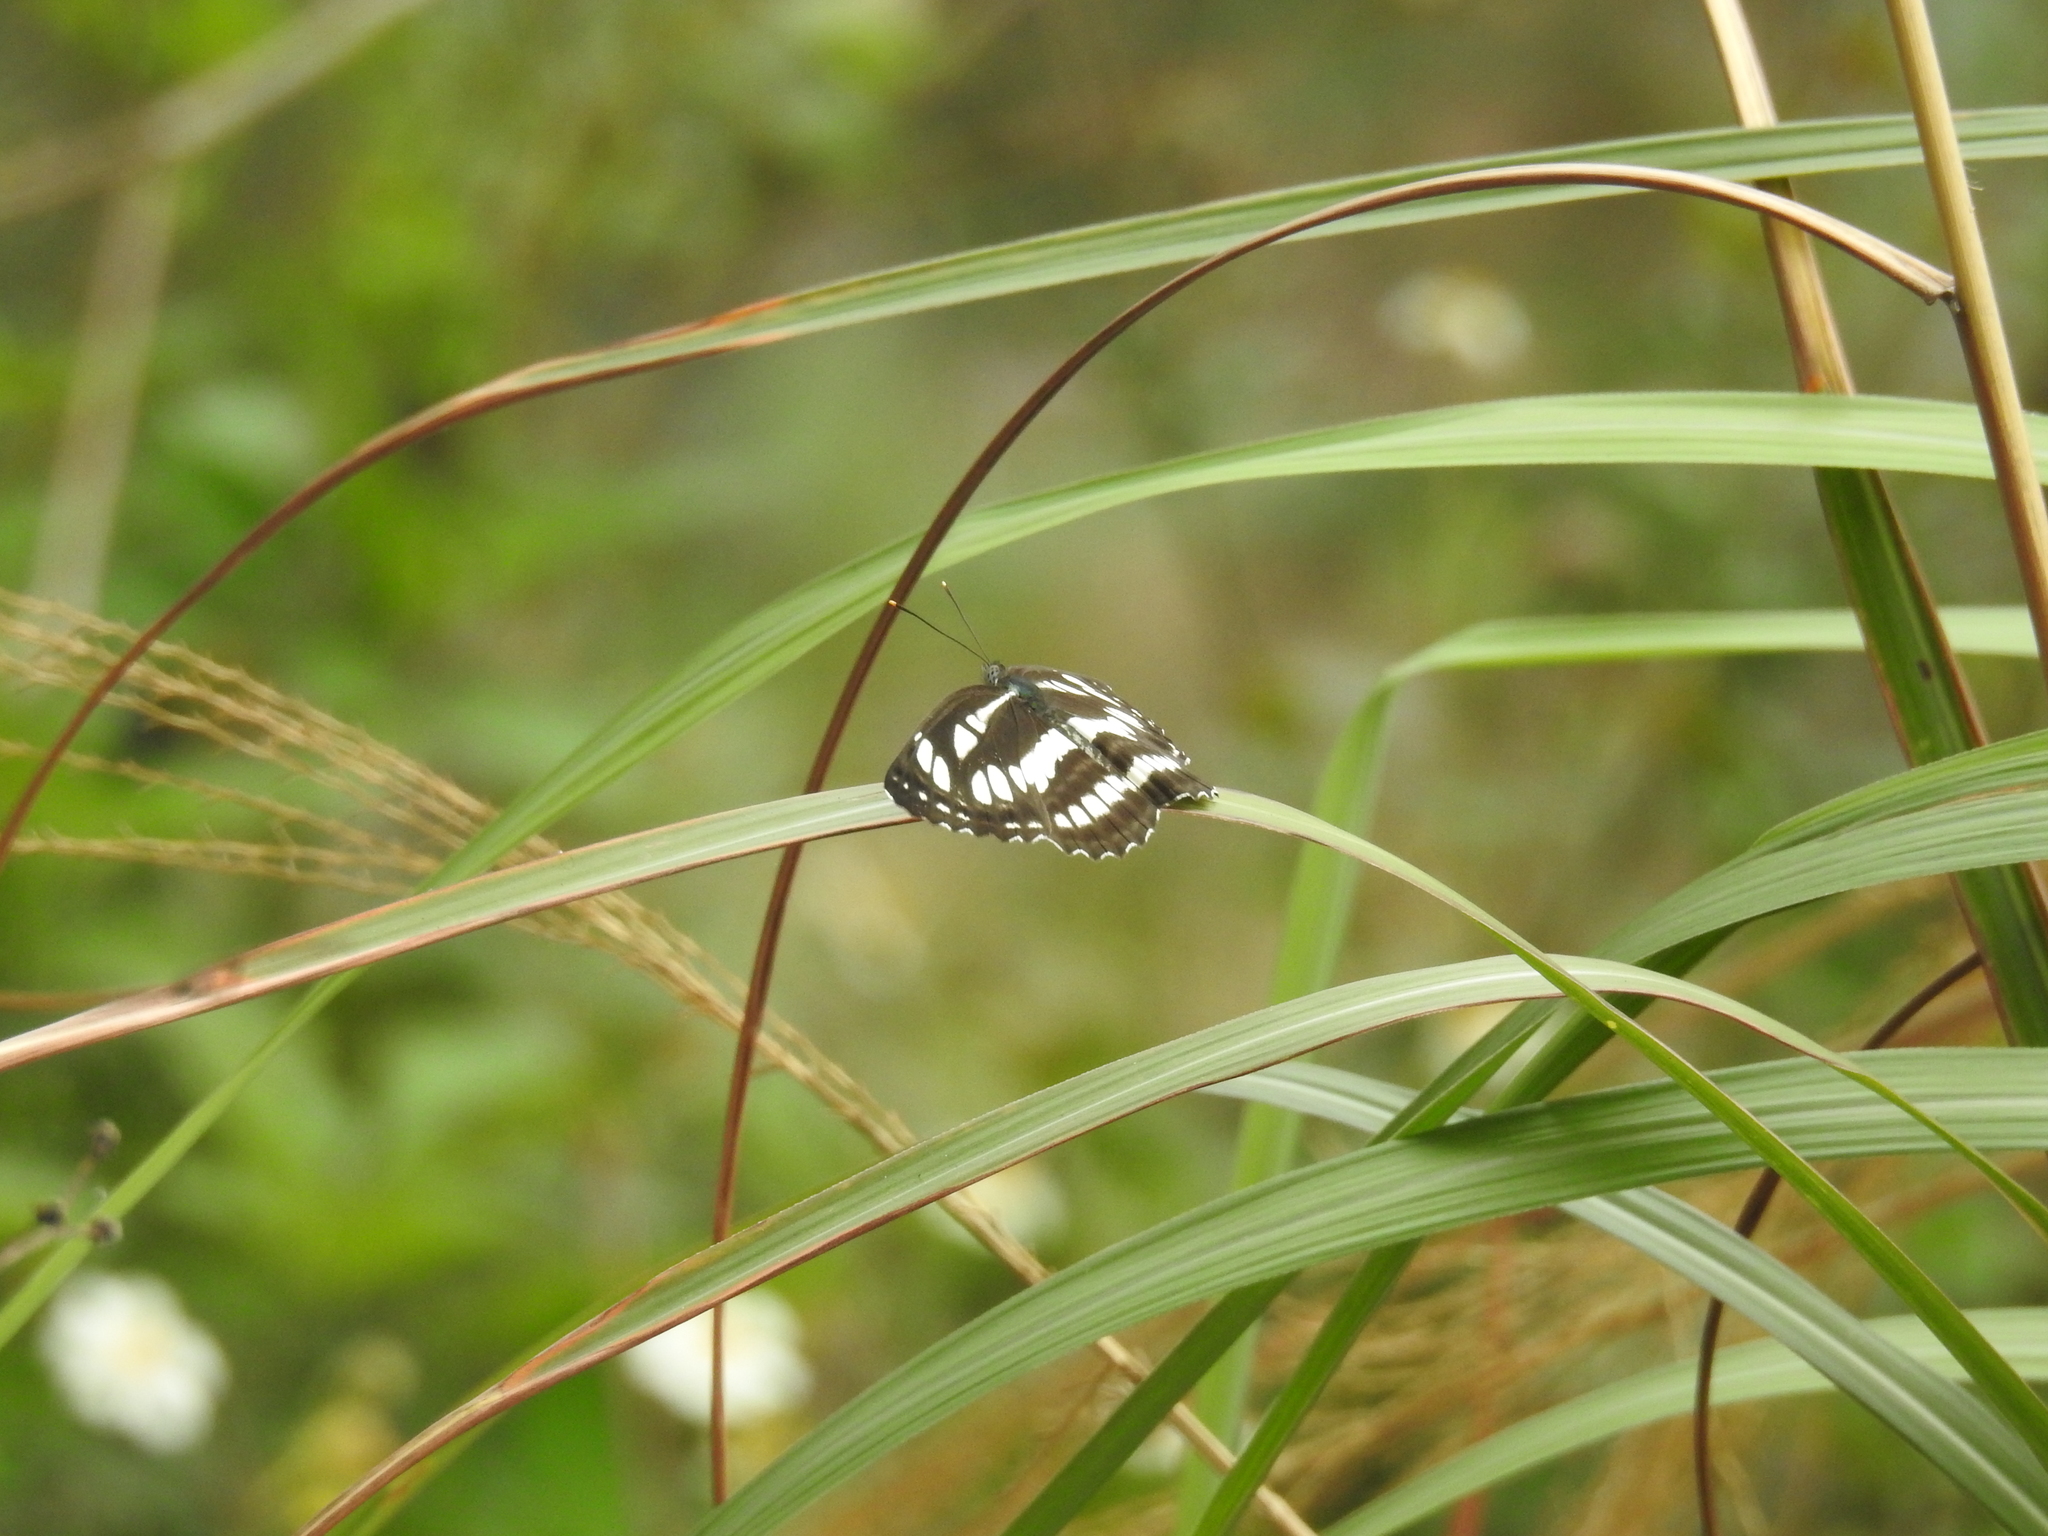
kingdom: Animalia
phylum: Arthropoda
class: Insecta
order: Lepidoptera
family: Nymphalidae
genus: Neptis
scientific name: Neptis hylas
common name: Common sailer
